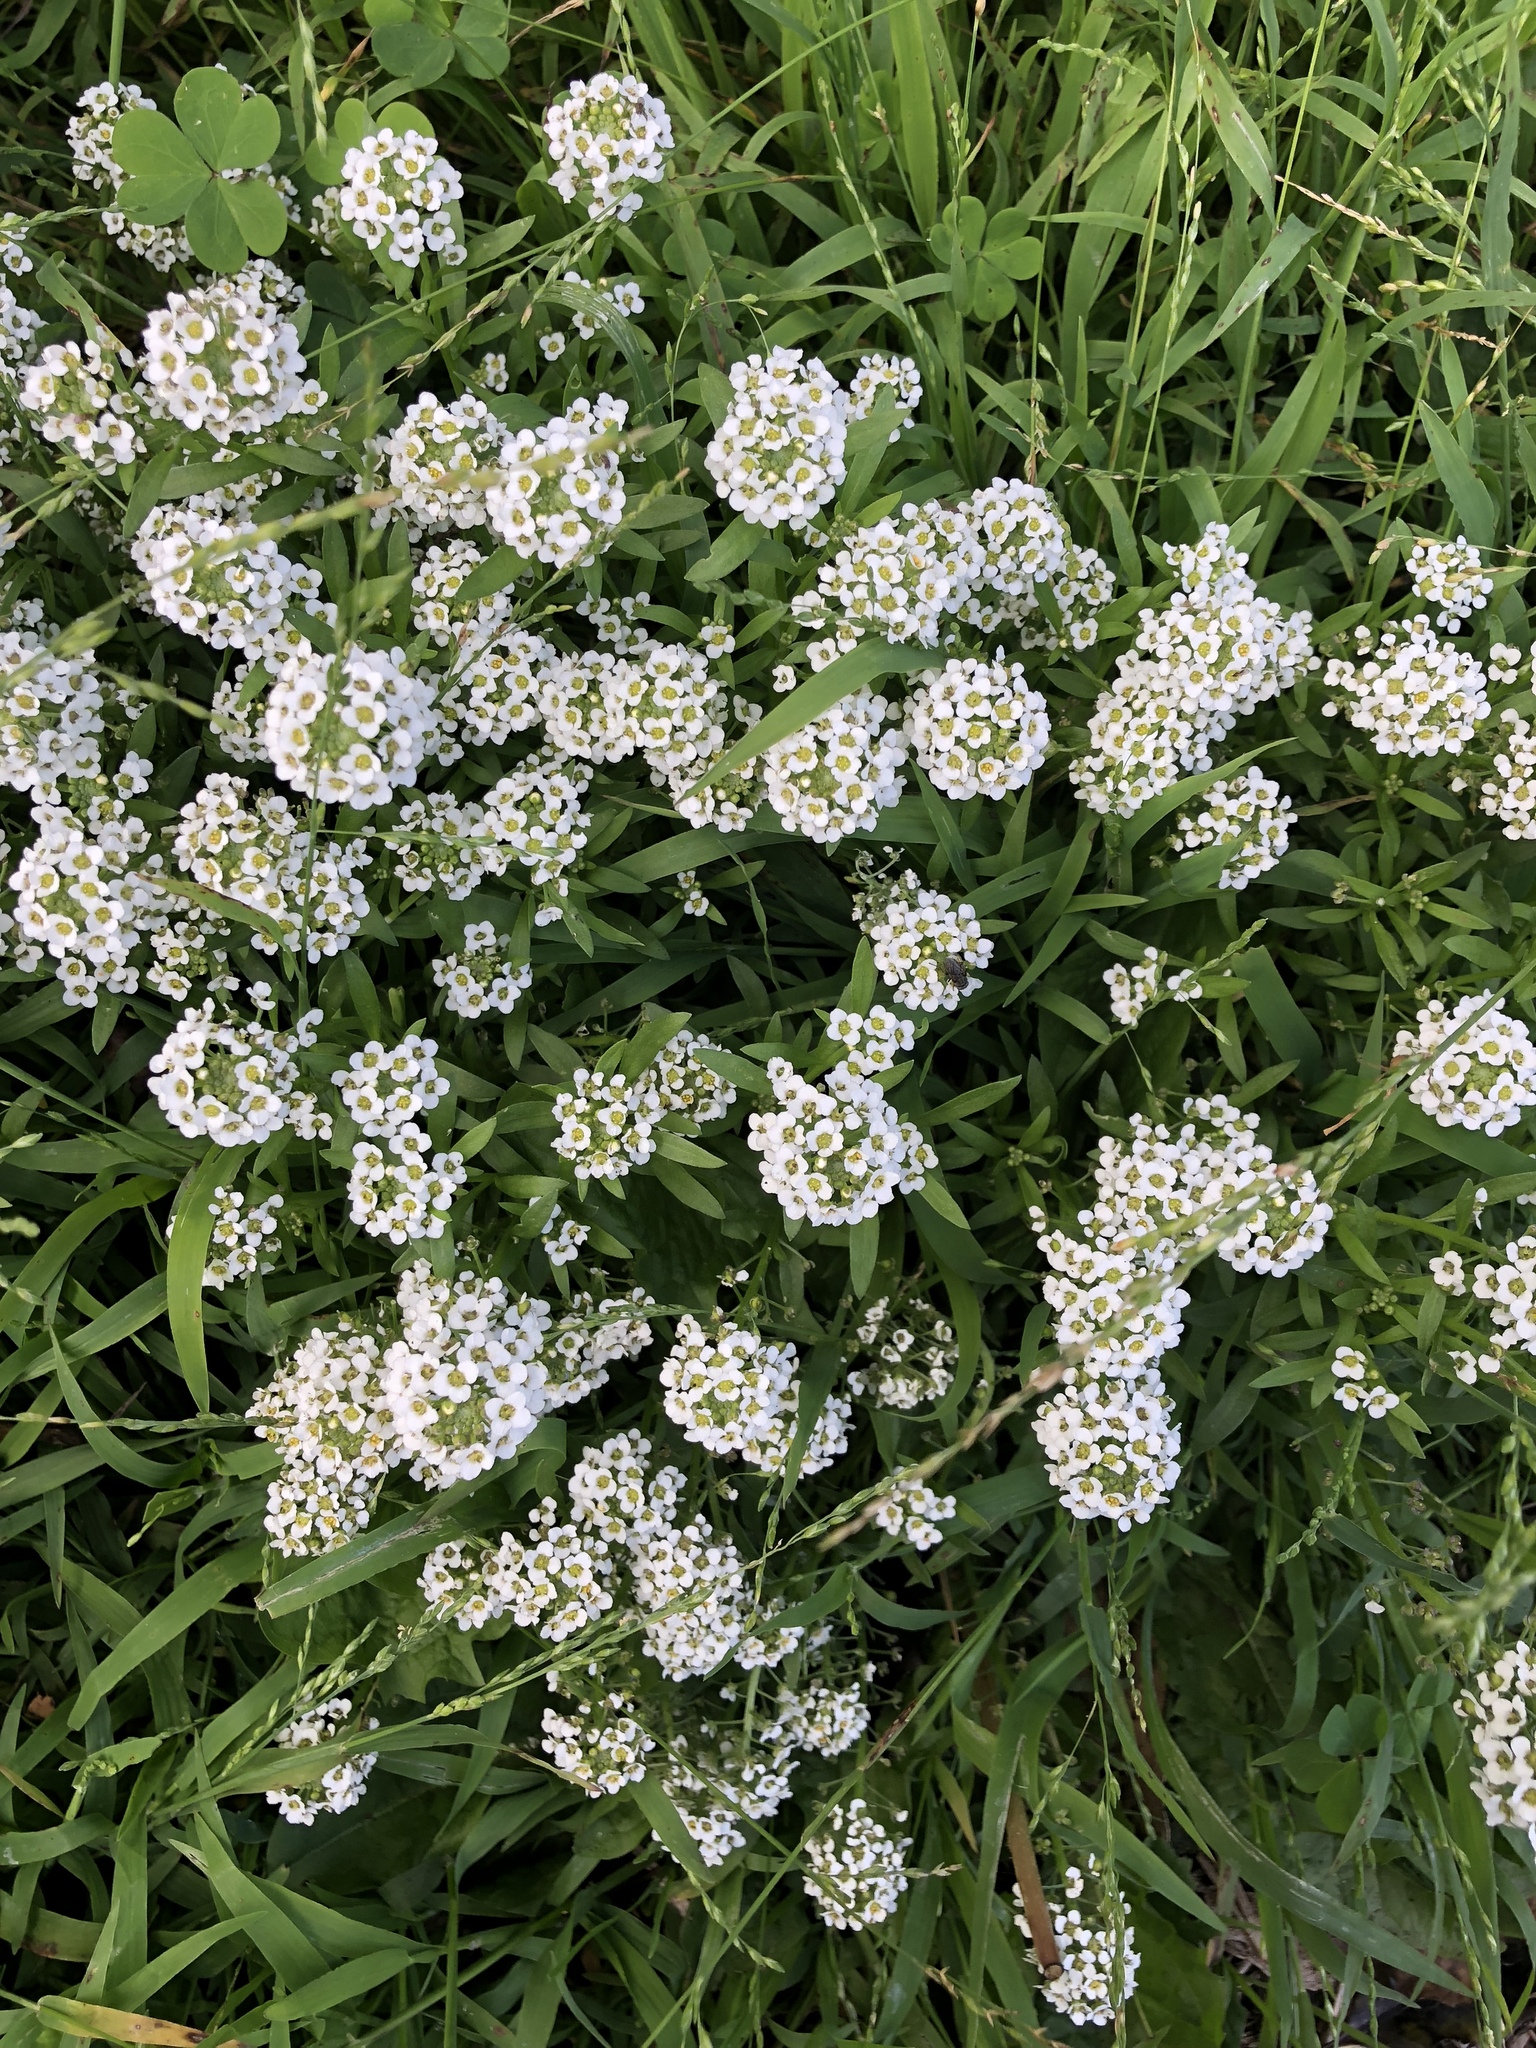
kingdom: Plantae
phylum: Tracheophyta
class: Magnoliopsida
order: Brassicales
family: Brassicaceae
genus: Lobularia
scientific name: Lobularia maritima
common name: Sweet alison
